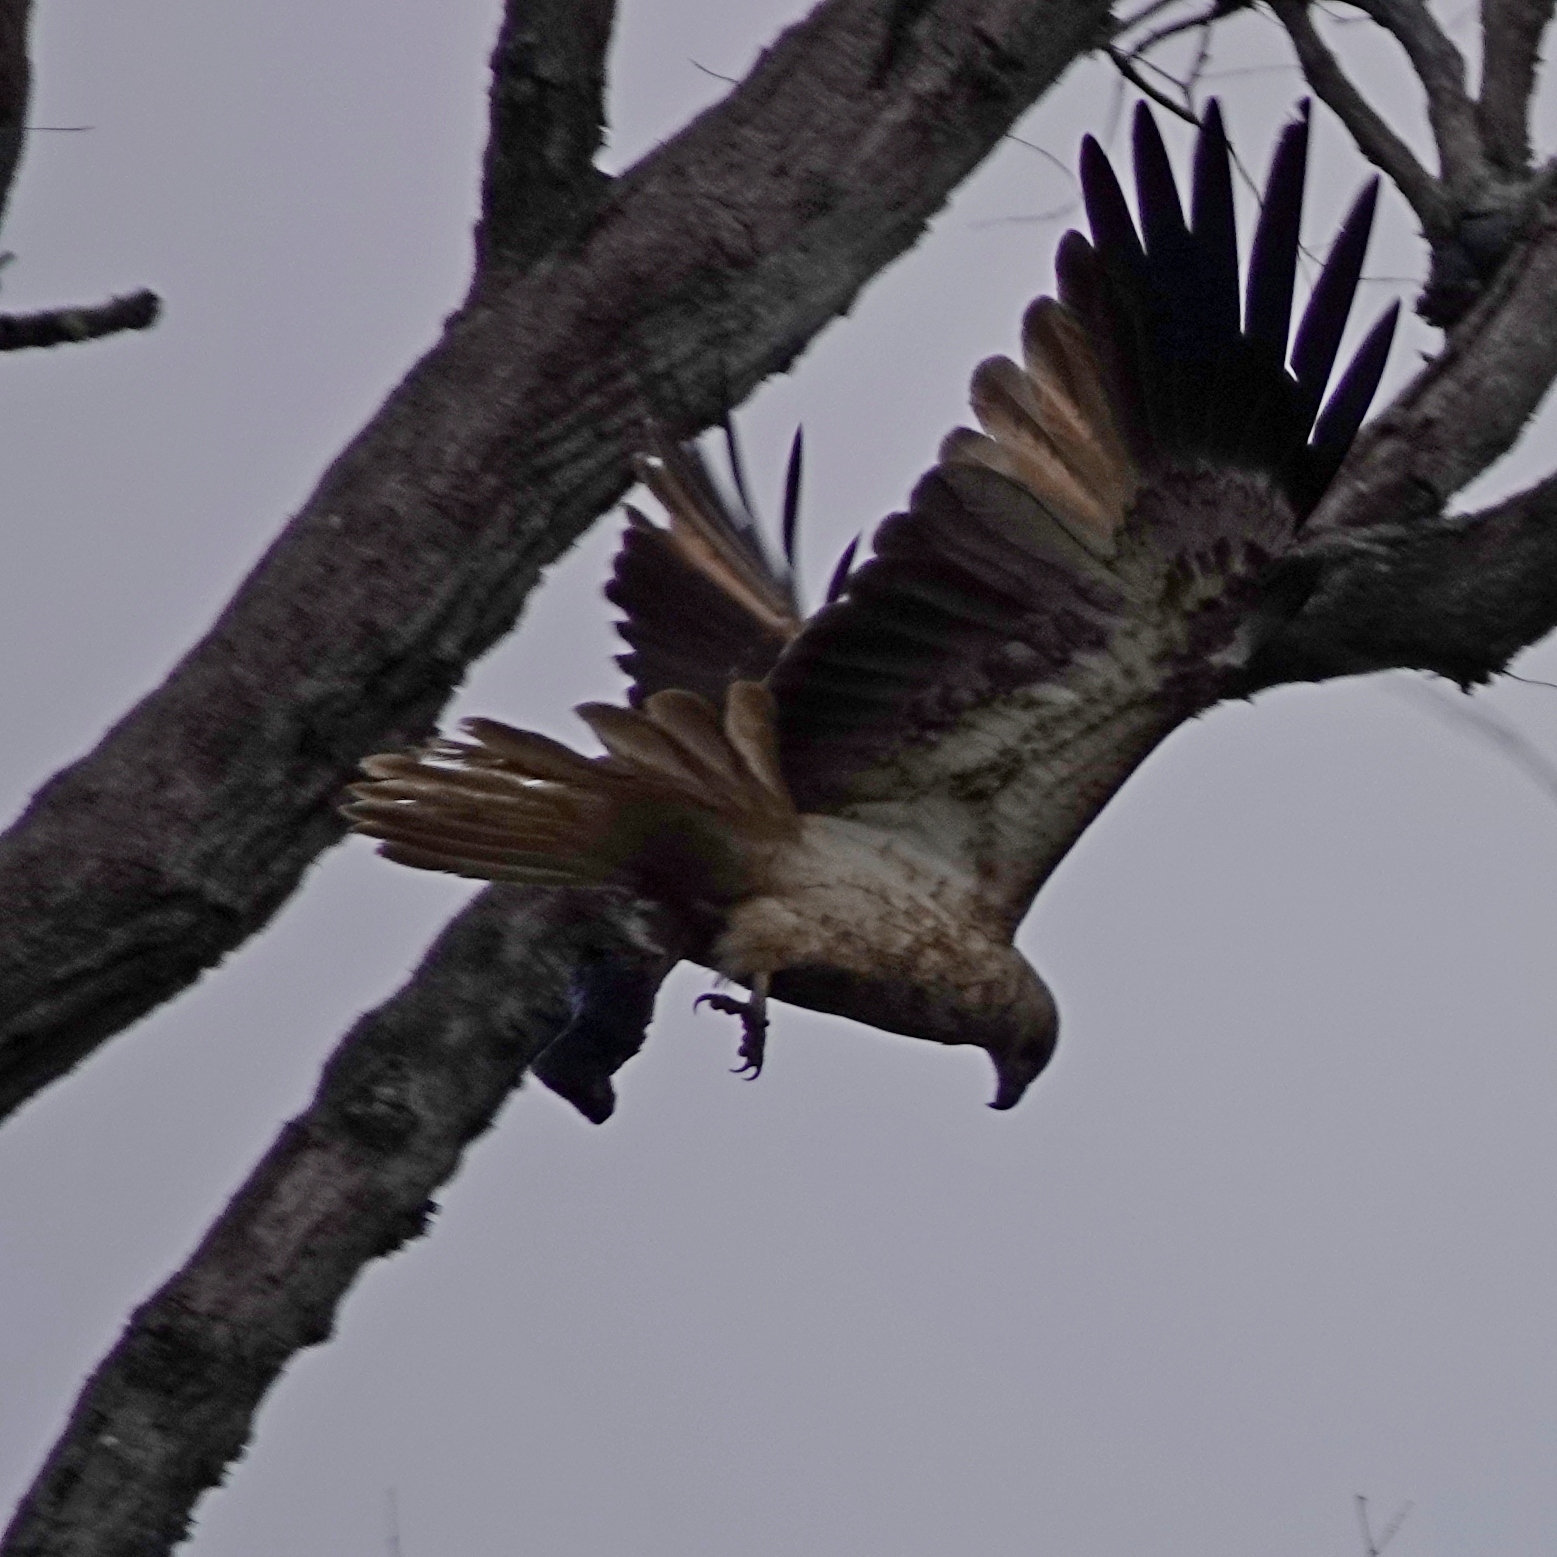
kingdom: Animalia
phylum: Chordata
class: Aves
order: Accipitriformes
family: Accipitridae
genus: Haliastur
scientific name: Haliastur sphenurus
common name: Whistling kite
